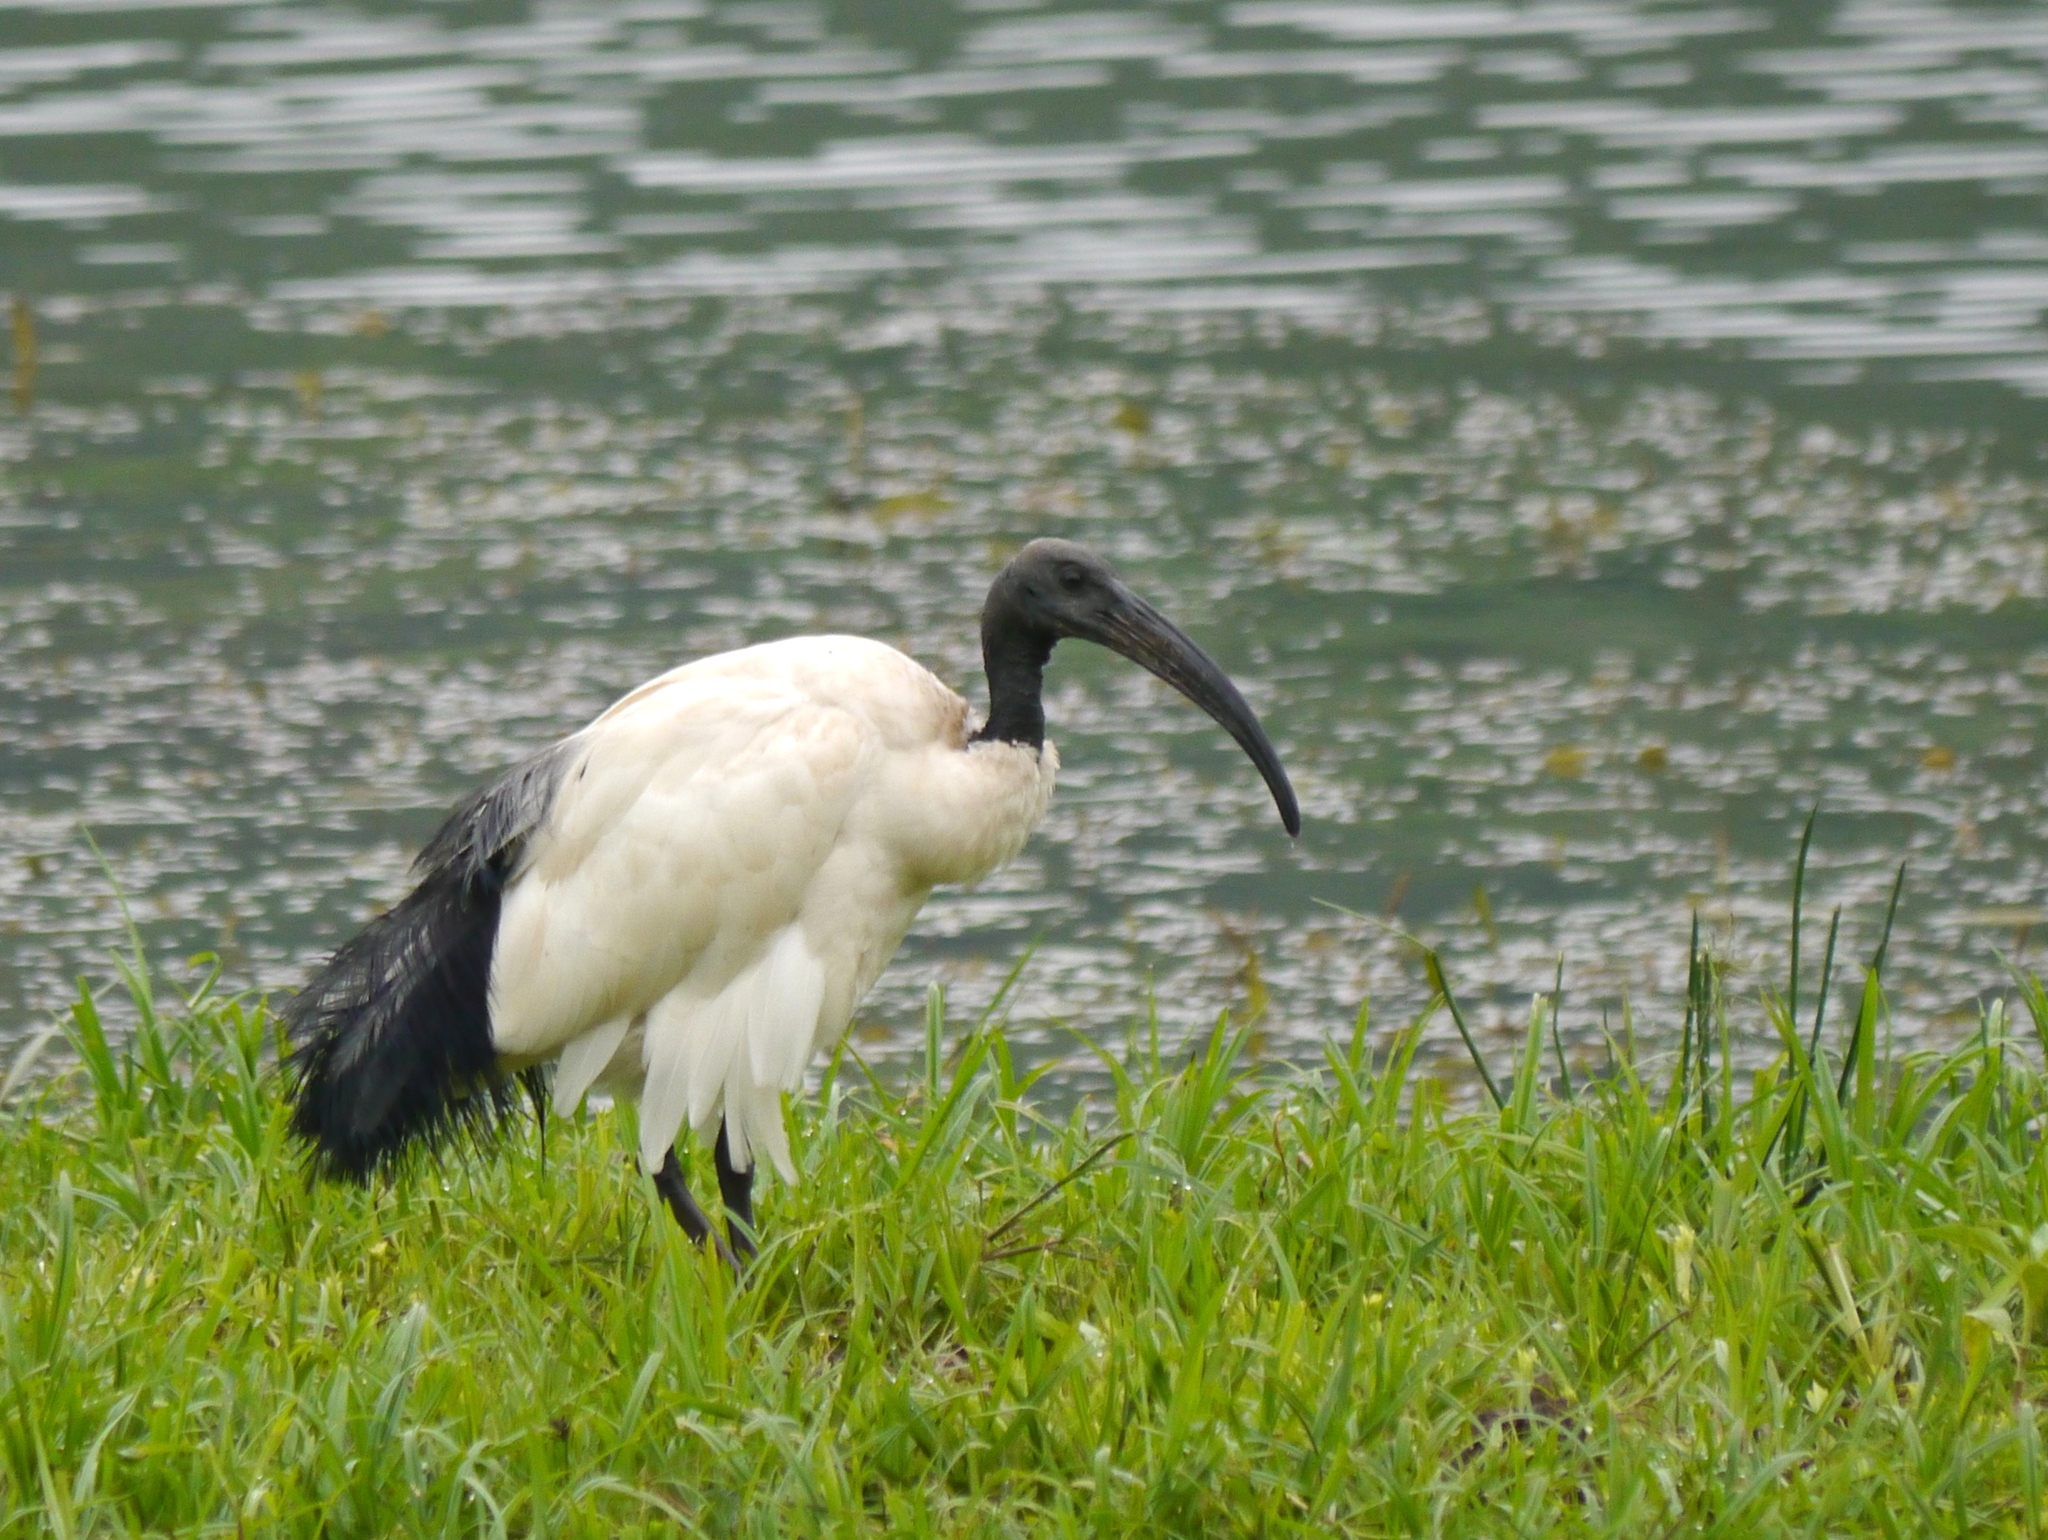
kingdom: Animalia
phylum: Chordata
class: Aves
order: Pelecaniformes
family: Threskiornithidae
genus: Threskiornis
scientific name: Threskiornis aethiopicus
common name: Sacred ibis
